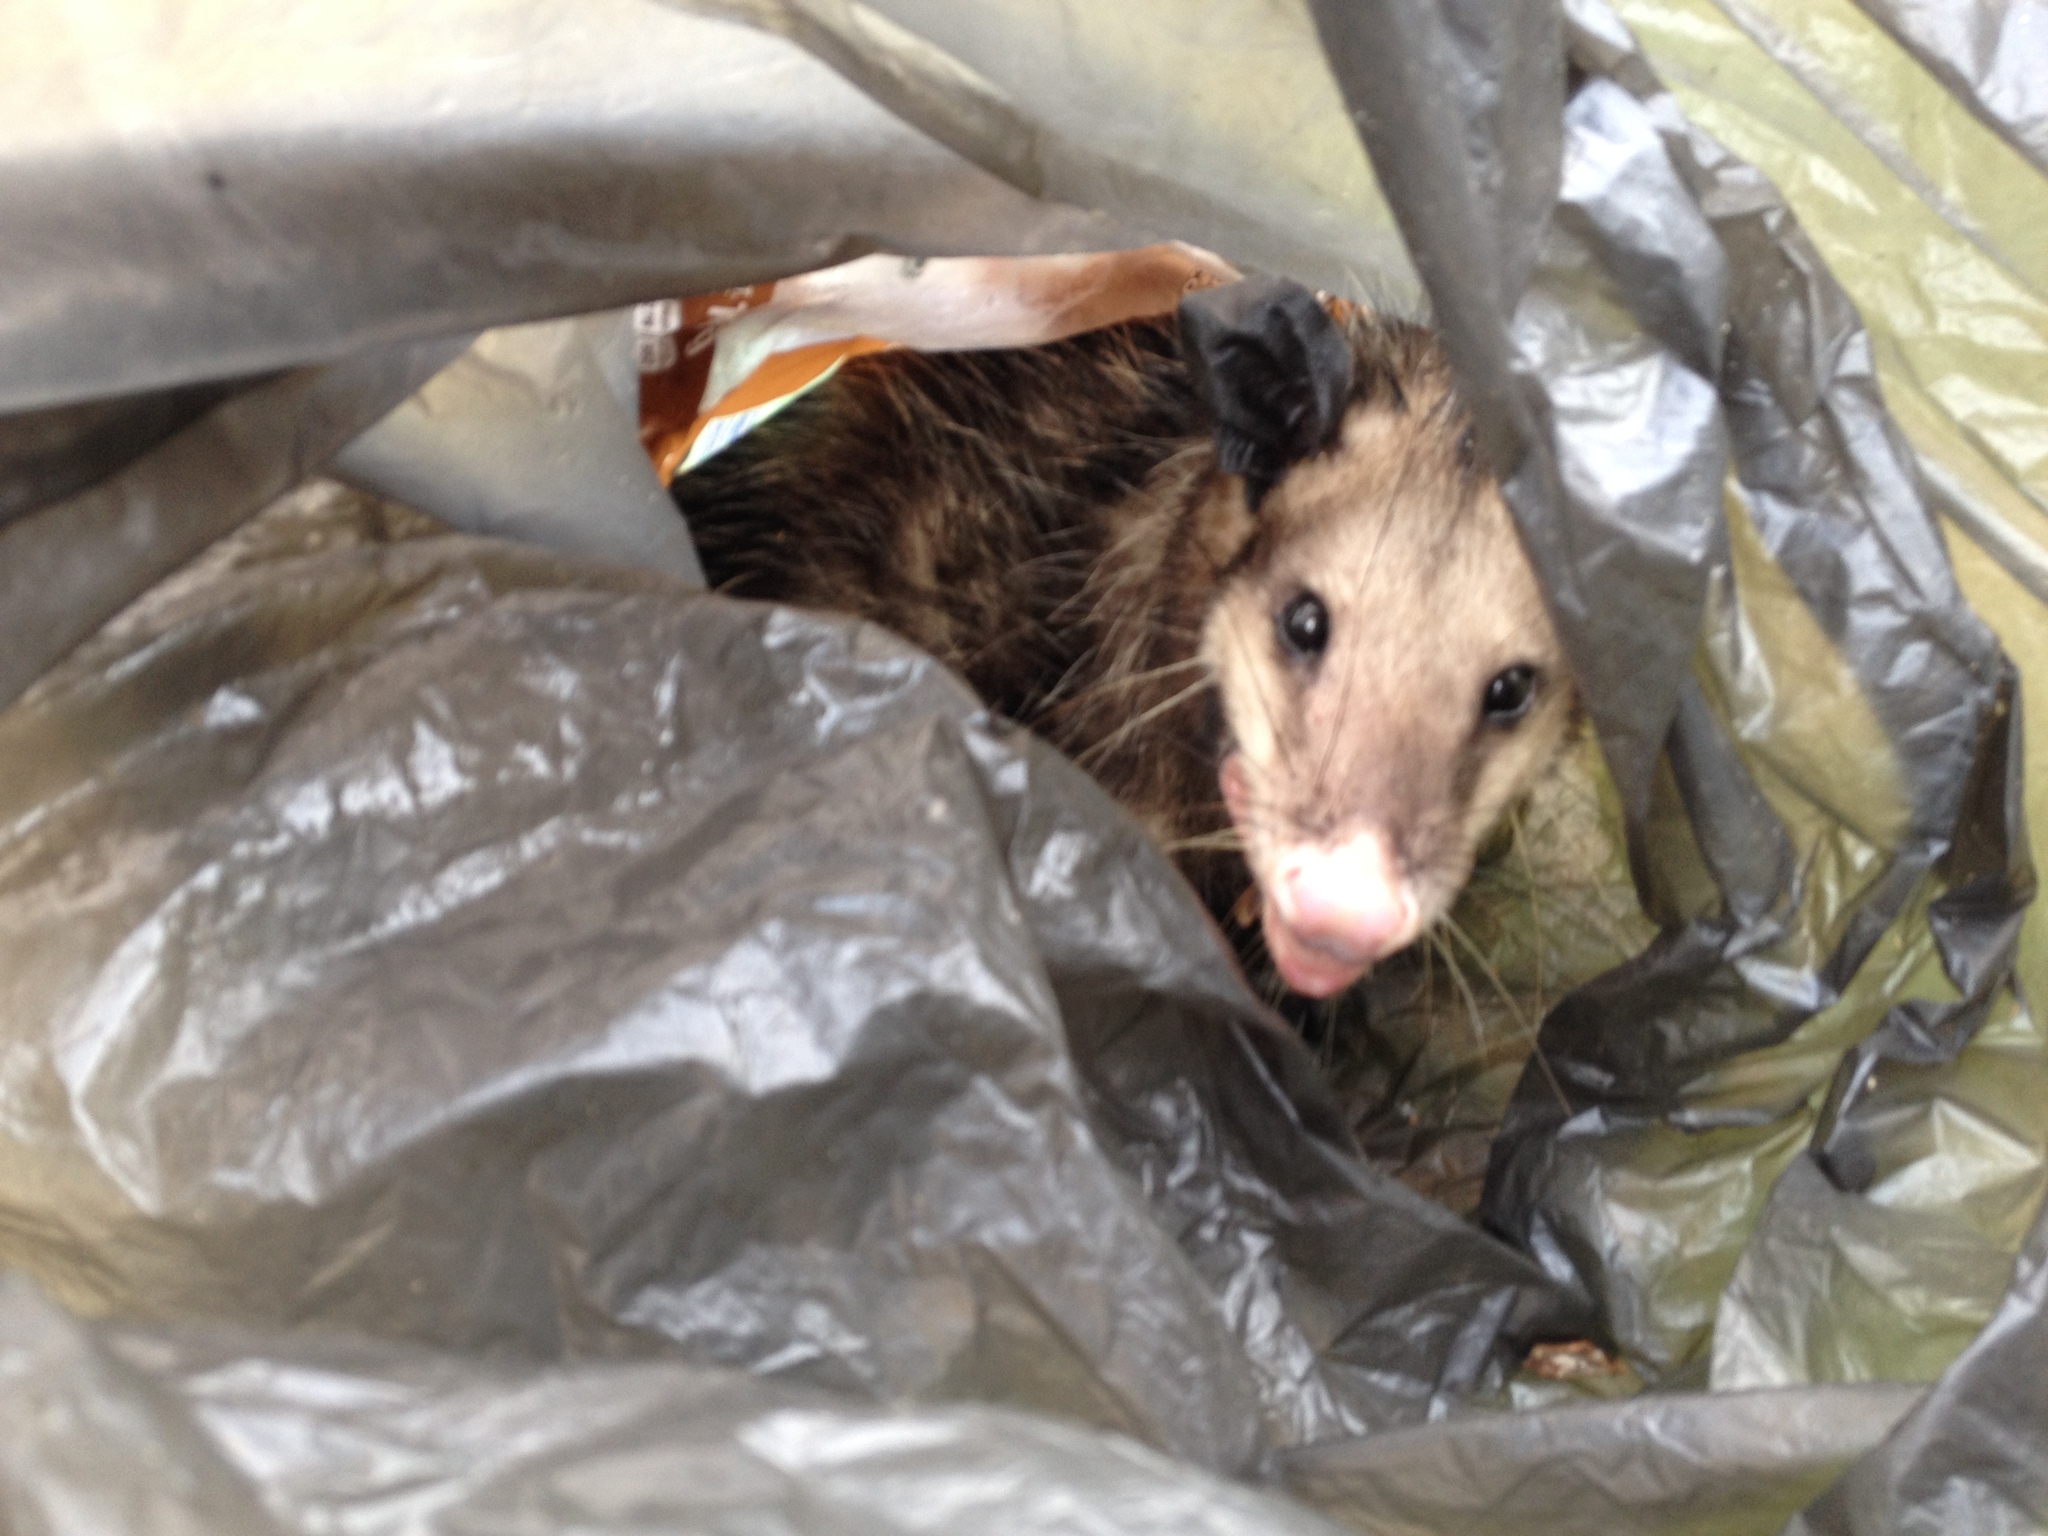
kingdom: Animalia
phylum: Chordata
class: Mammalia
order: Didelphimorphia
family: Didelphidae
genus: Didelphis
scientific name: Didelphis virginiana
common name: Virginia opossum
